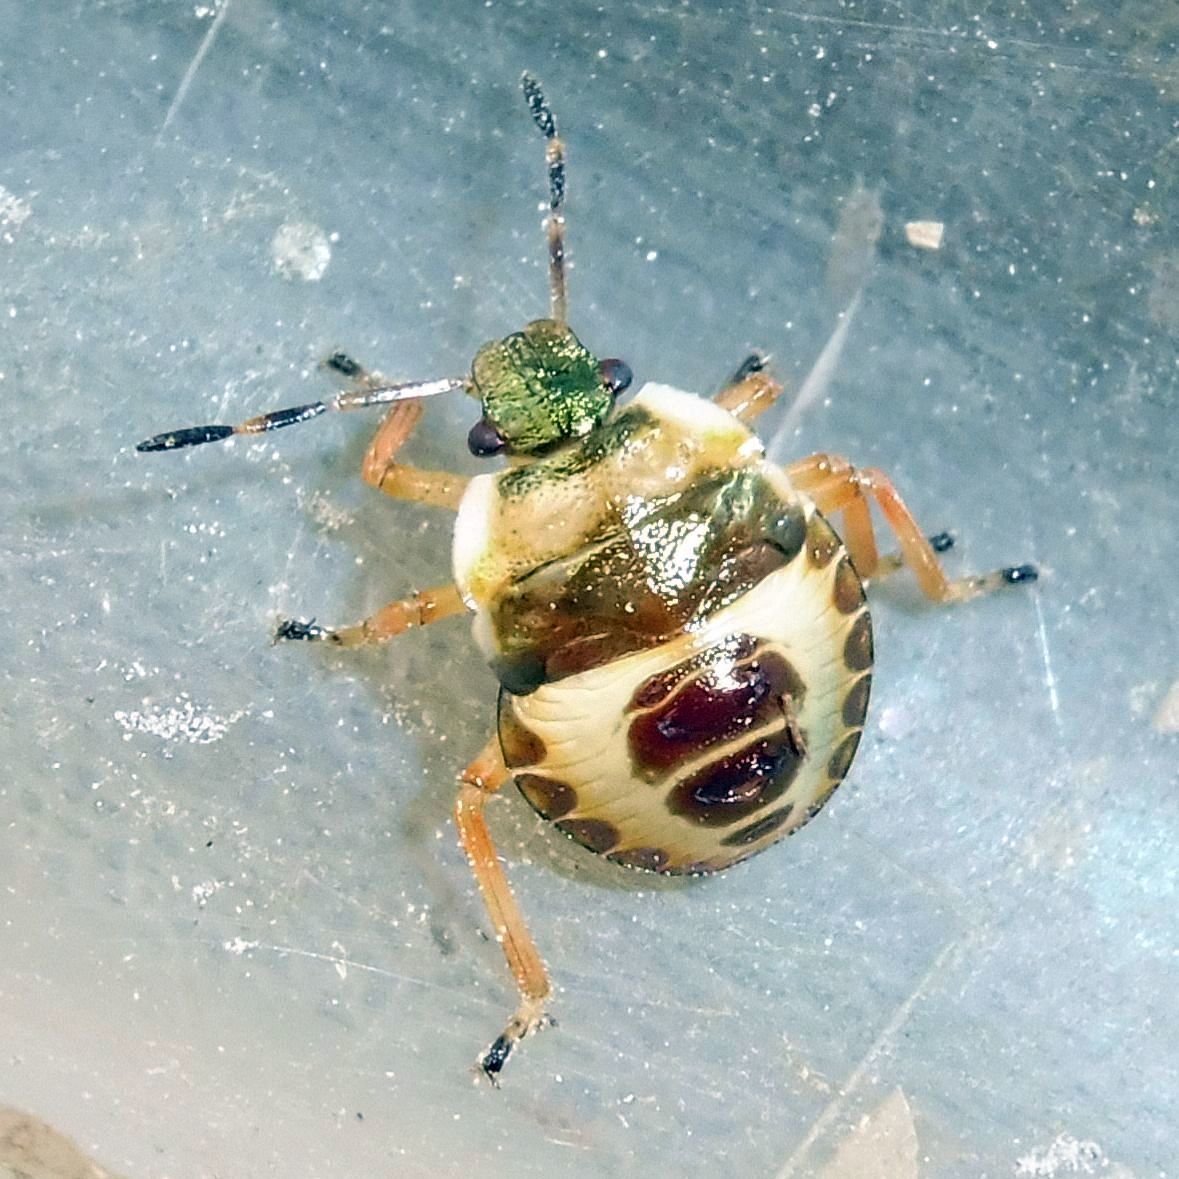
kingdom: Animalia
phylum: Arthropoda
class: Insecta
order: Hemiptera
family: Pentatomidae
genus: Troilus
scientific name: Troilus luridus
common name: Bronze shieldbug
